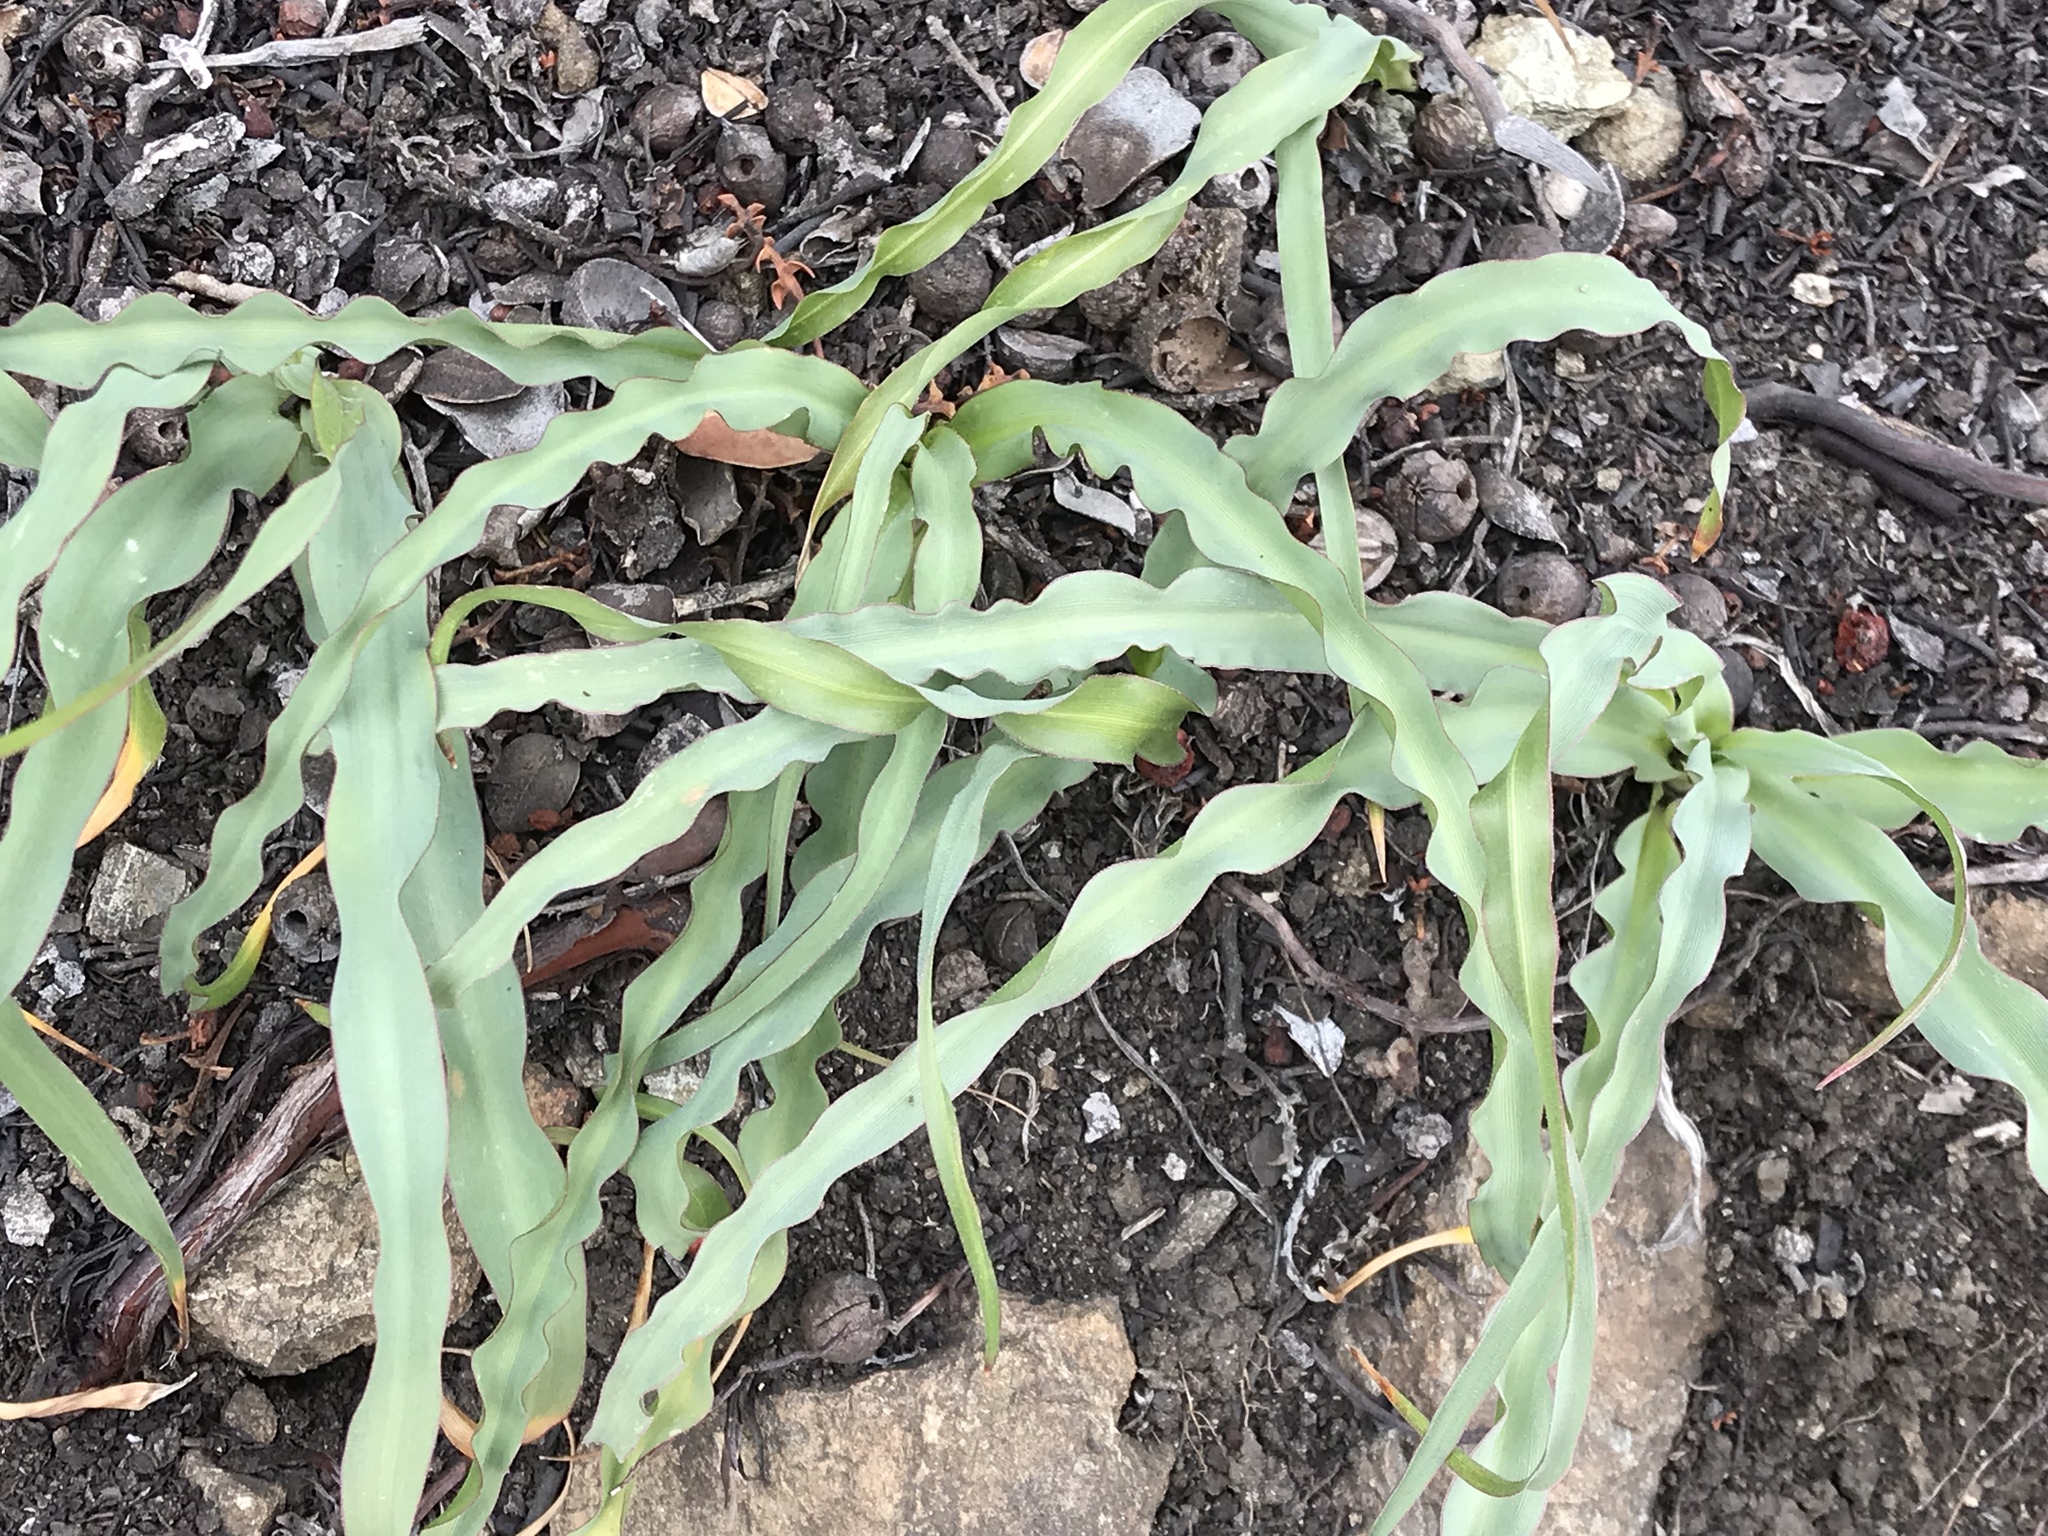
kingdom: Plantae
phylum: Tracheophyta
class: Liliopsida
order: Asparagales
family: Asparagaceae
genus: Chlorogalum
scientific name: Chlorogalum pomeridianum
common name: Amole
